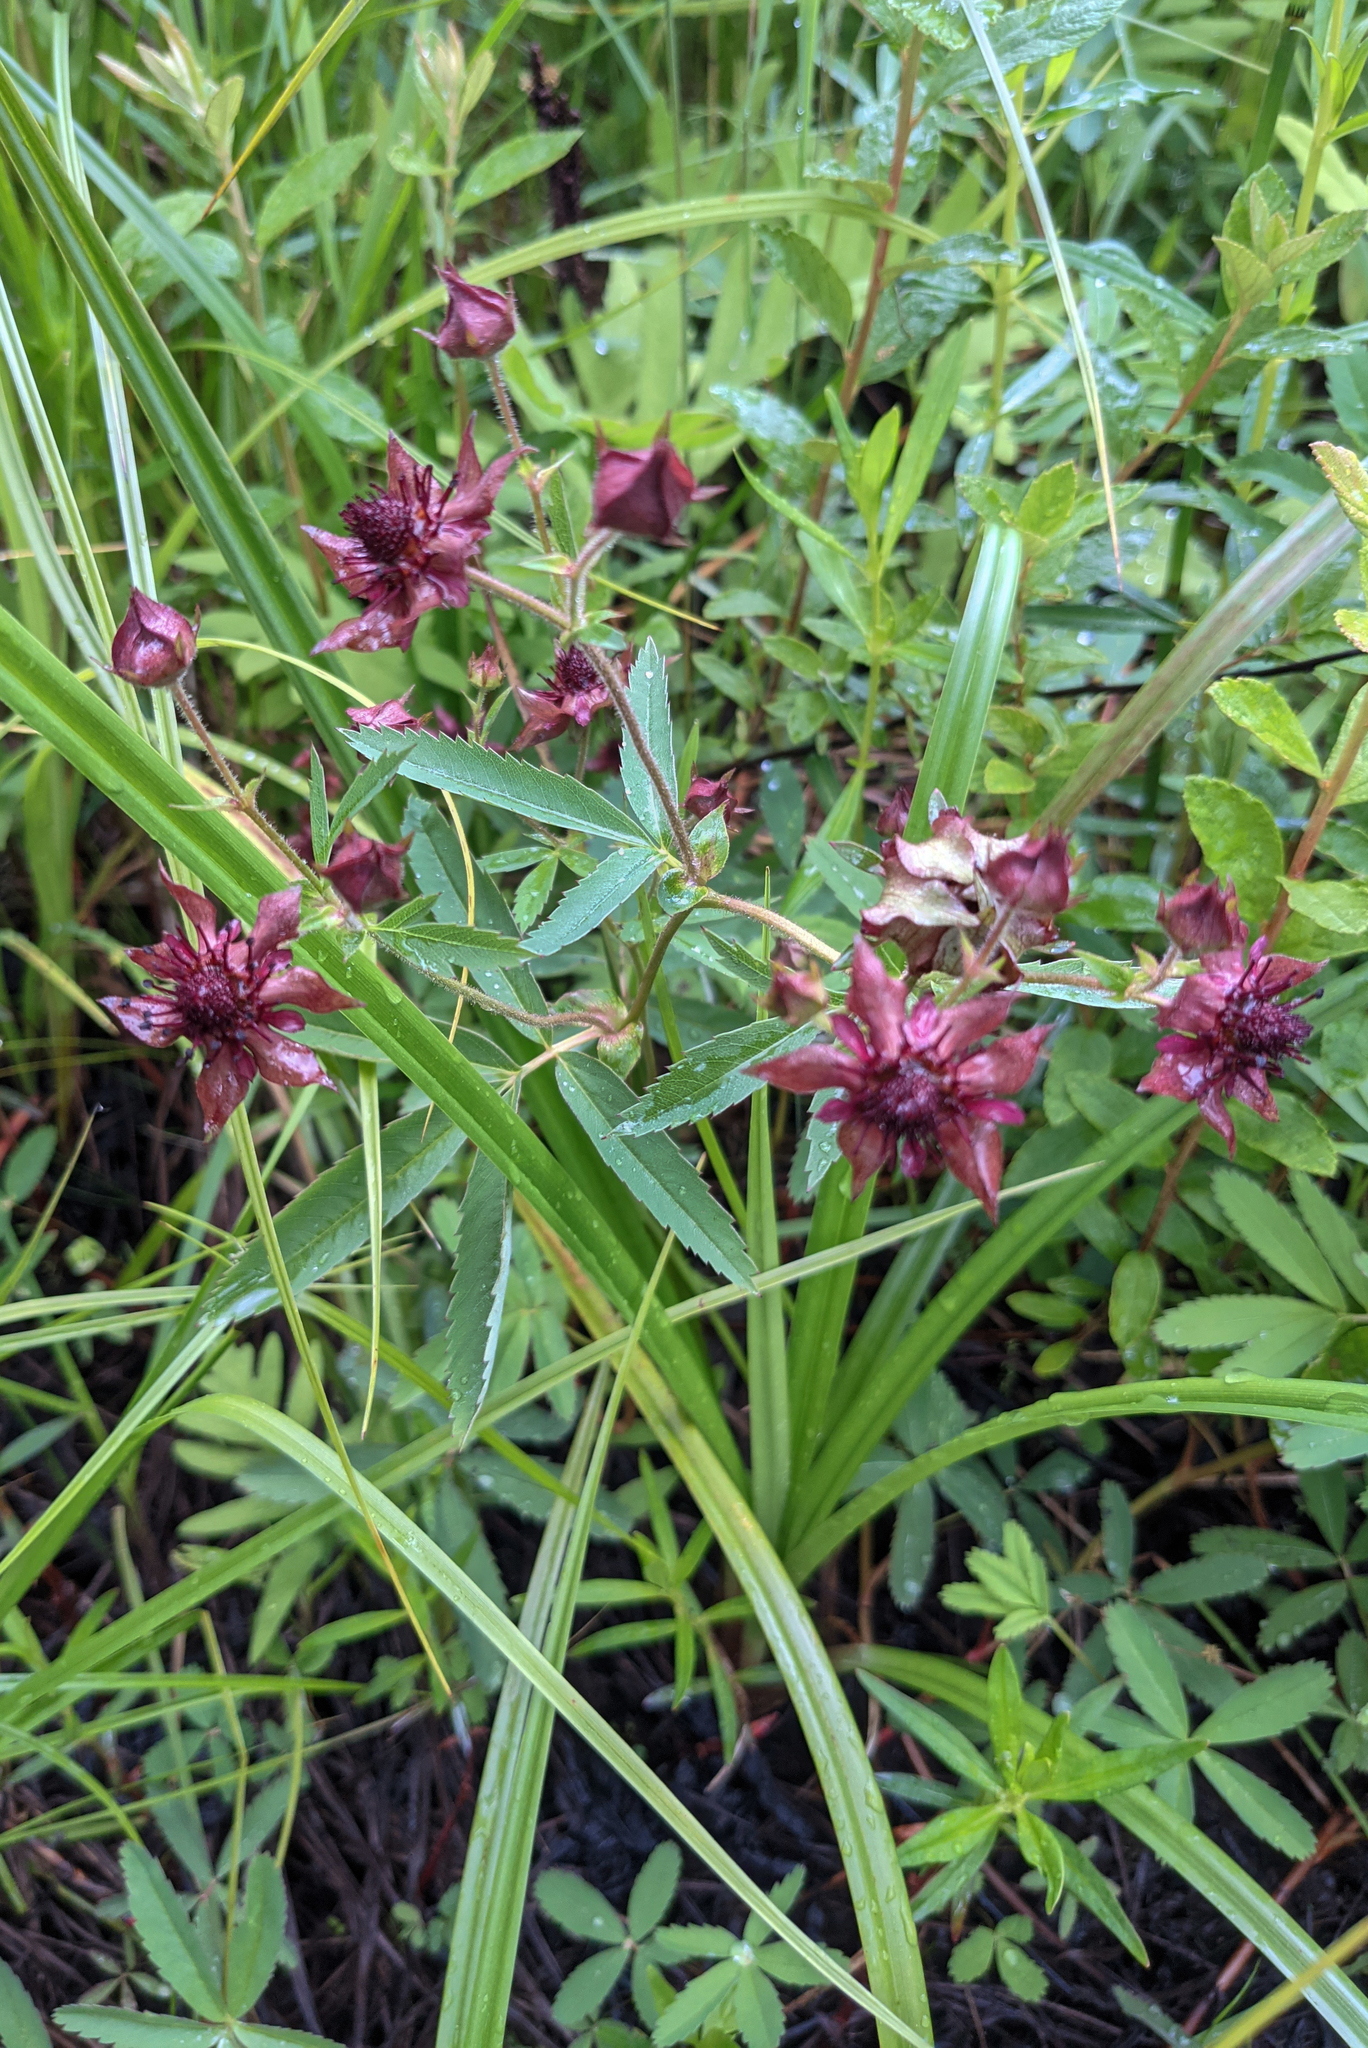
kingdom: Plantae
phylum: Tracheophyta
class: Magnoliopsida
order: Rosales
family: Rosaceae
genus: Comarum
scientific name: Comarum palustre
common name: Marsh cinquefoil
